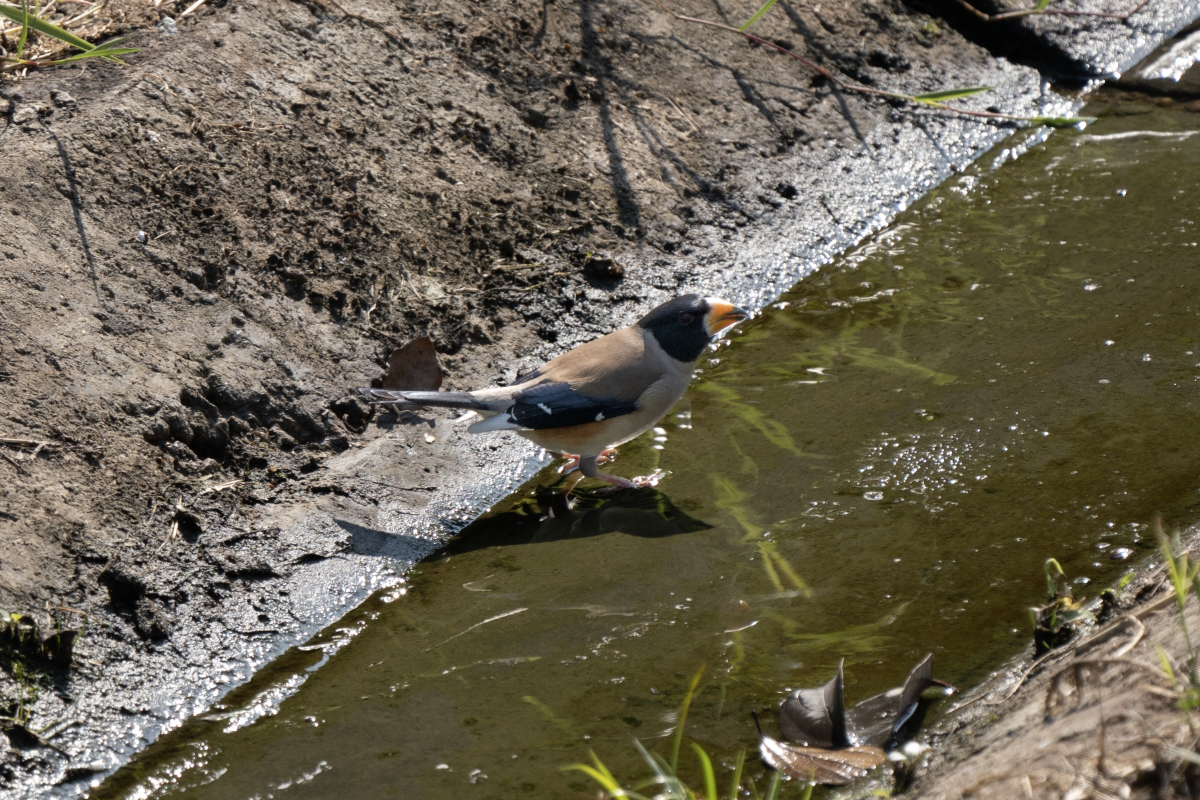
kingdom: Animalia
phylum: Chordata
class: Aves
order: Passeriformes
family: Fringillidae
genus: Eophona
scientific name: Eophona migratoria
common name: Yellow-billed grosbeak
